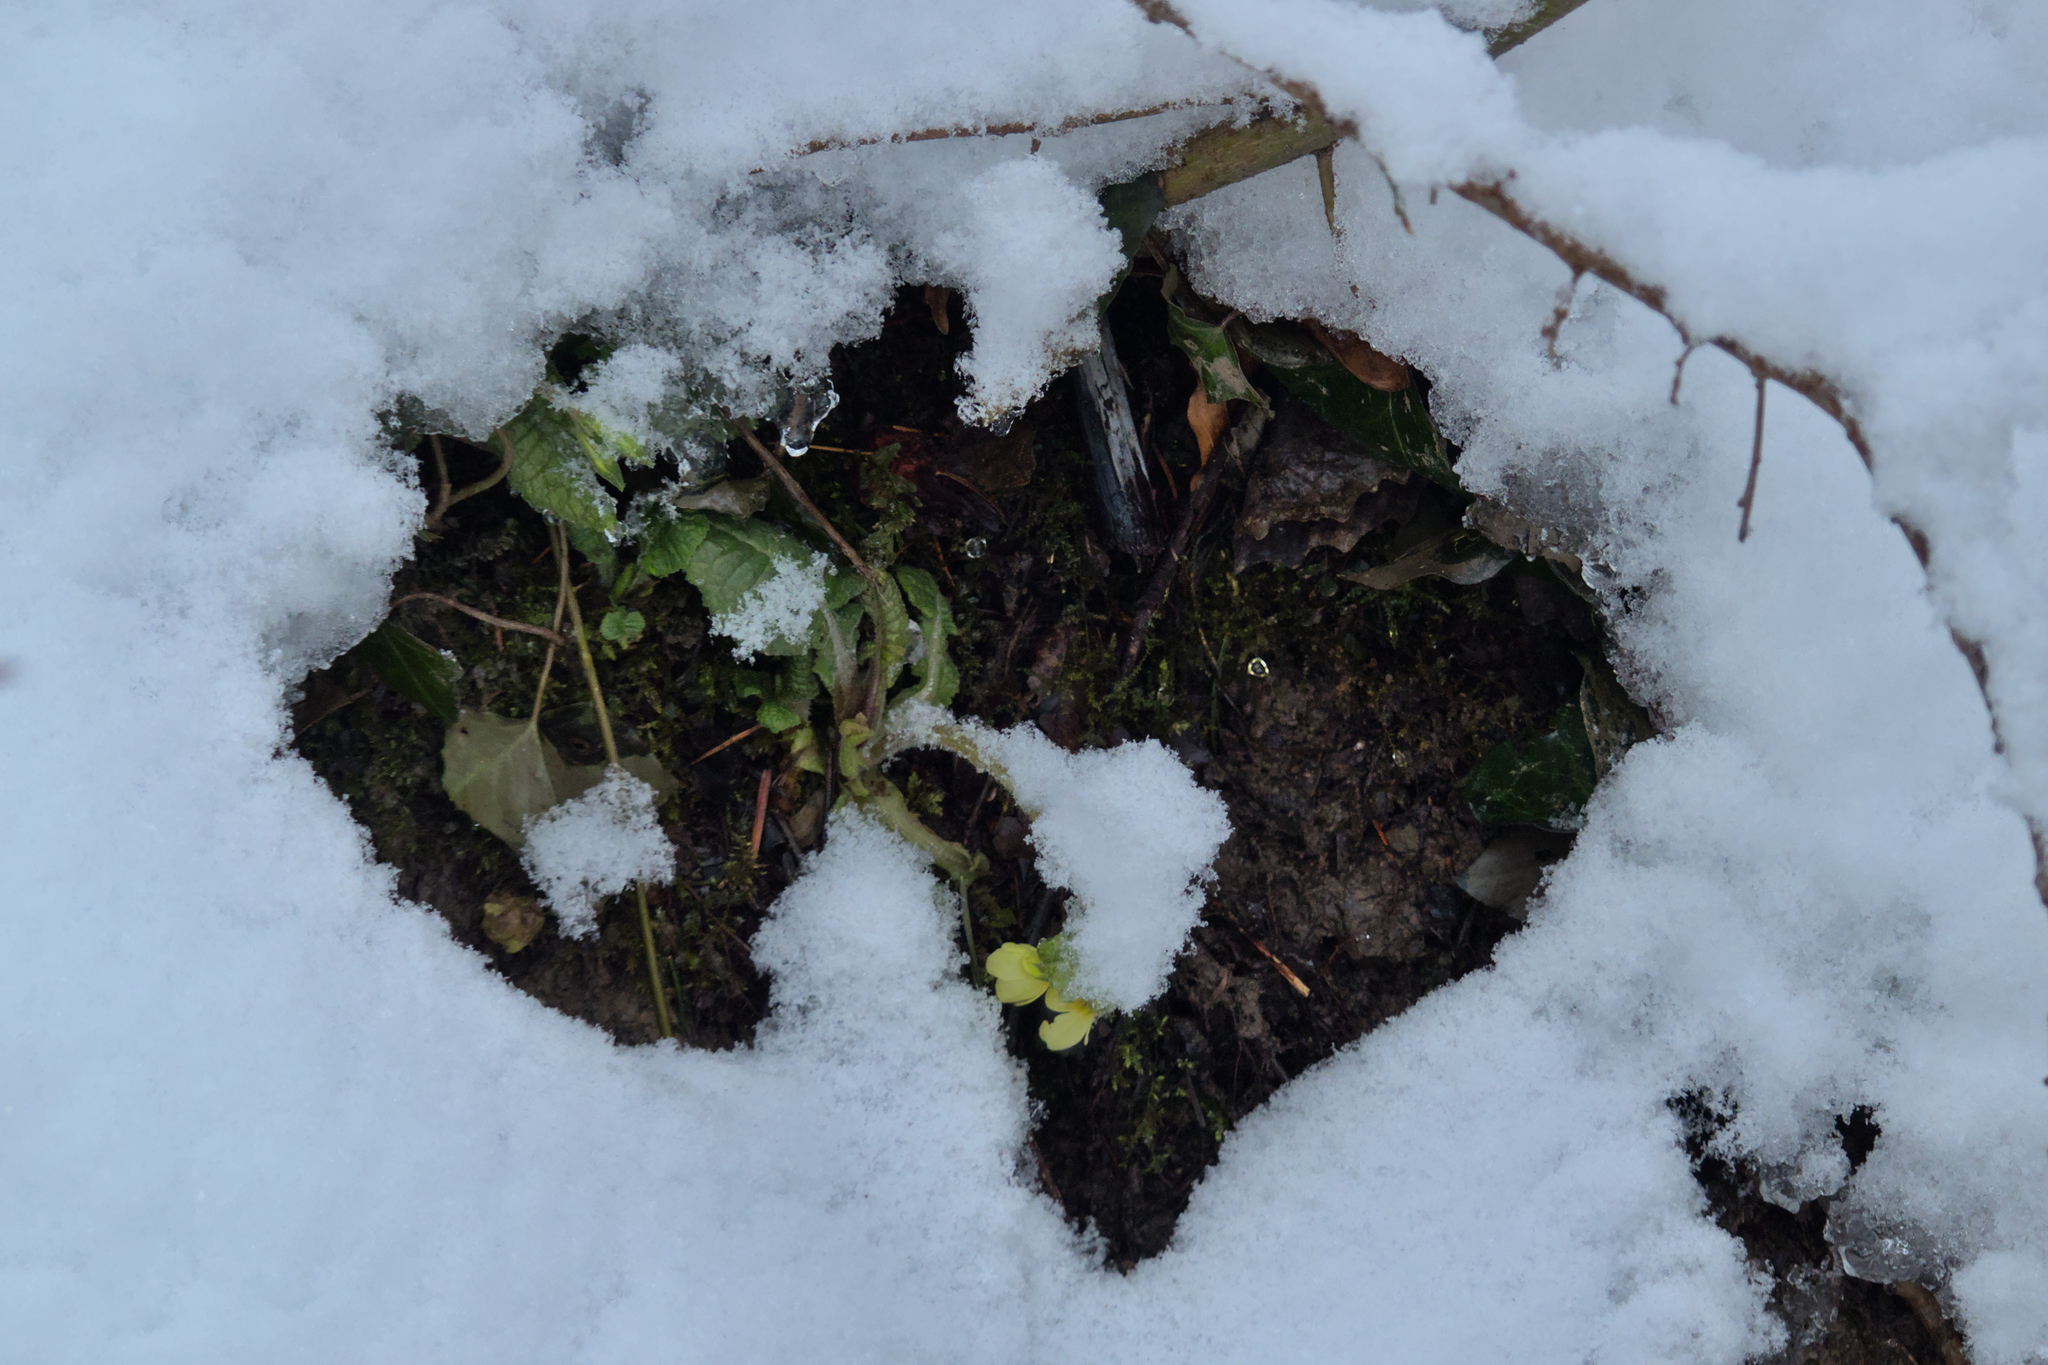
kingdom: Plantae
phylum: Tracheophyta
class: Magnoliopsida
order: Ericales
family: Primulaceae
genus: Primula
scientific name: Primula elatior
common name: Oxlip
